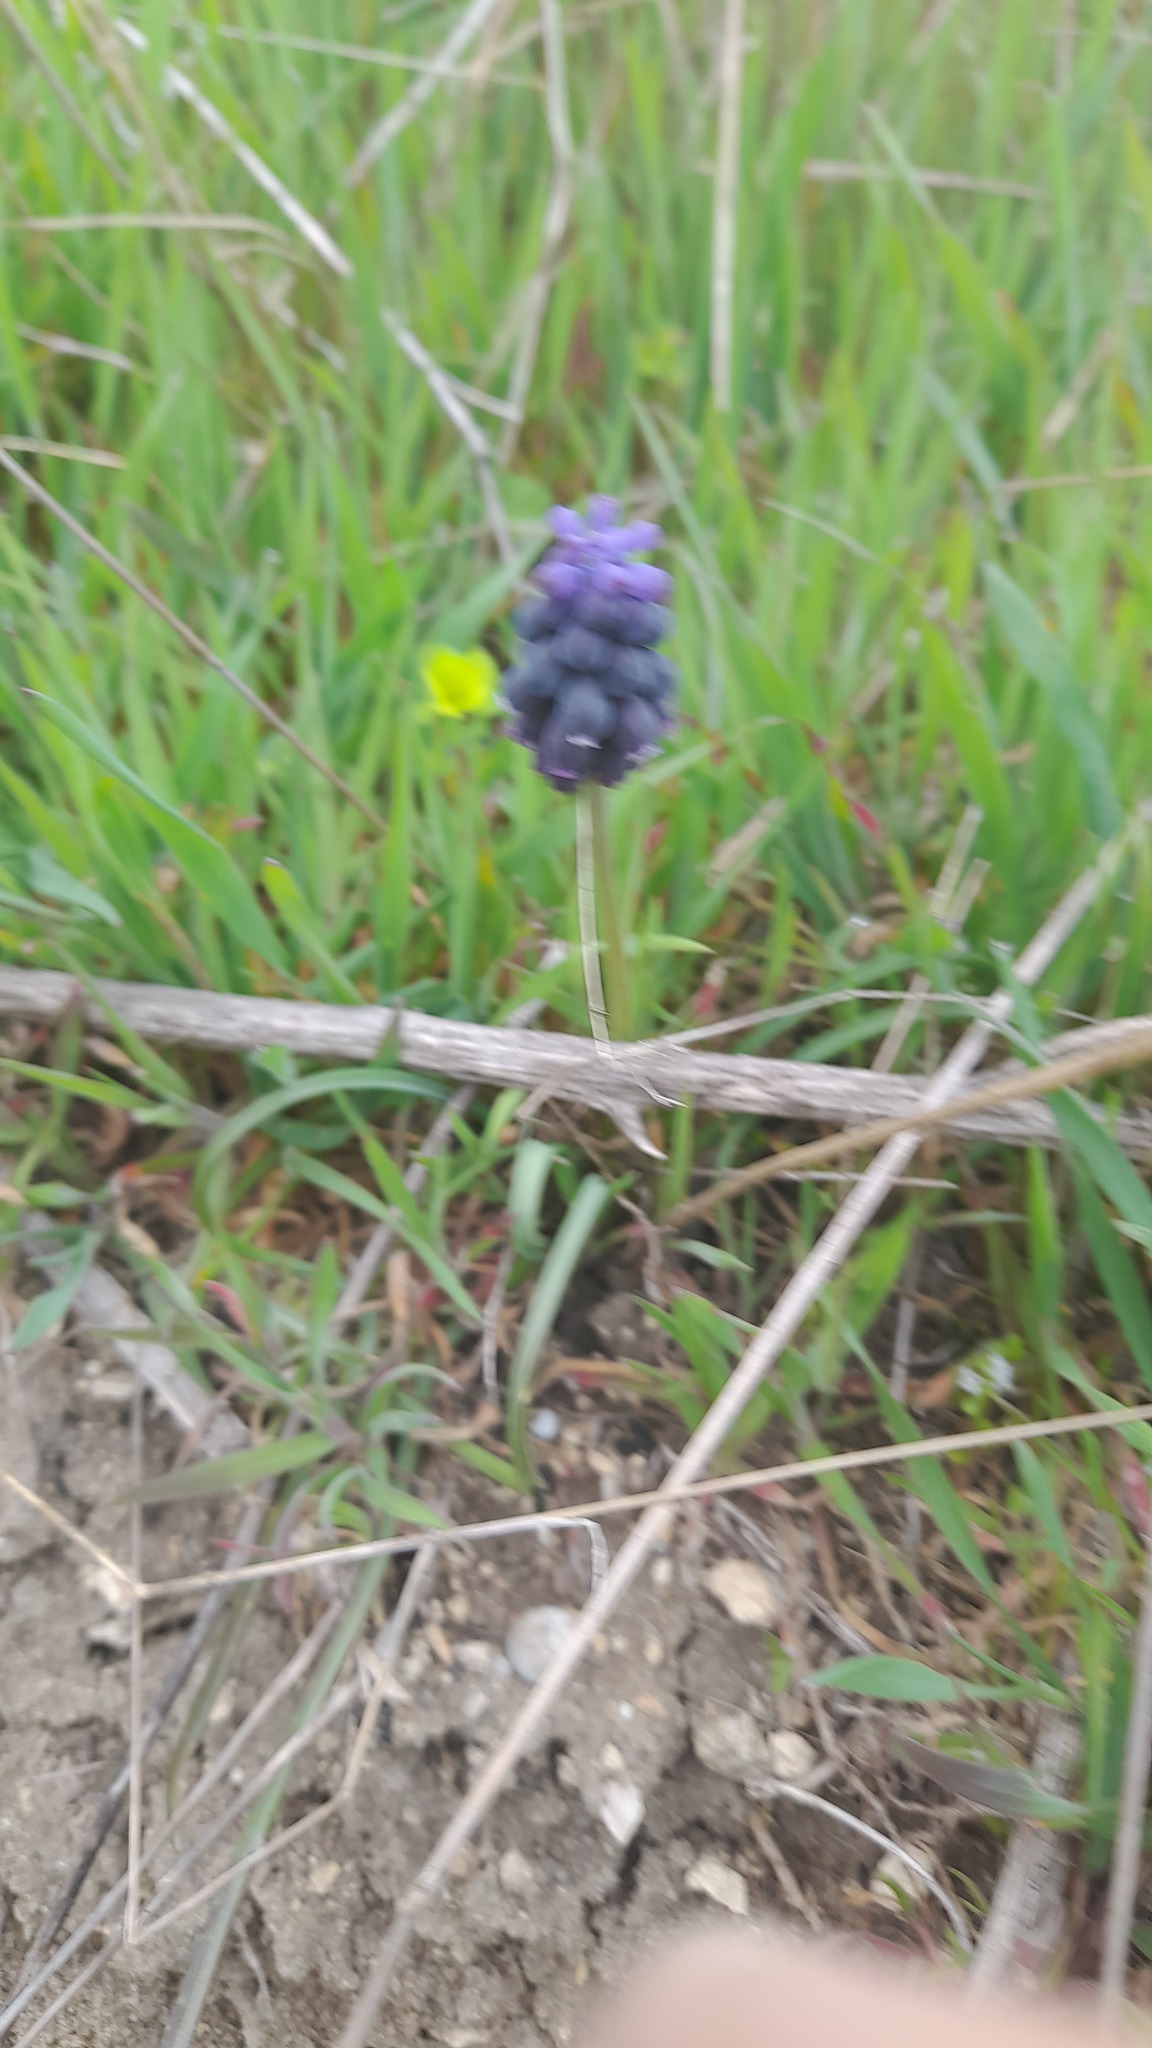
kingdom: Plantae
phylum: Tracheophyta
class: Liliopsida
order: Asparagales
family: Asparagaceae
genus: Muscari
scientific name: Muscari neglectum
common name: Grape-hyacinth
